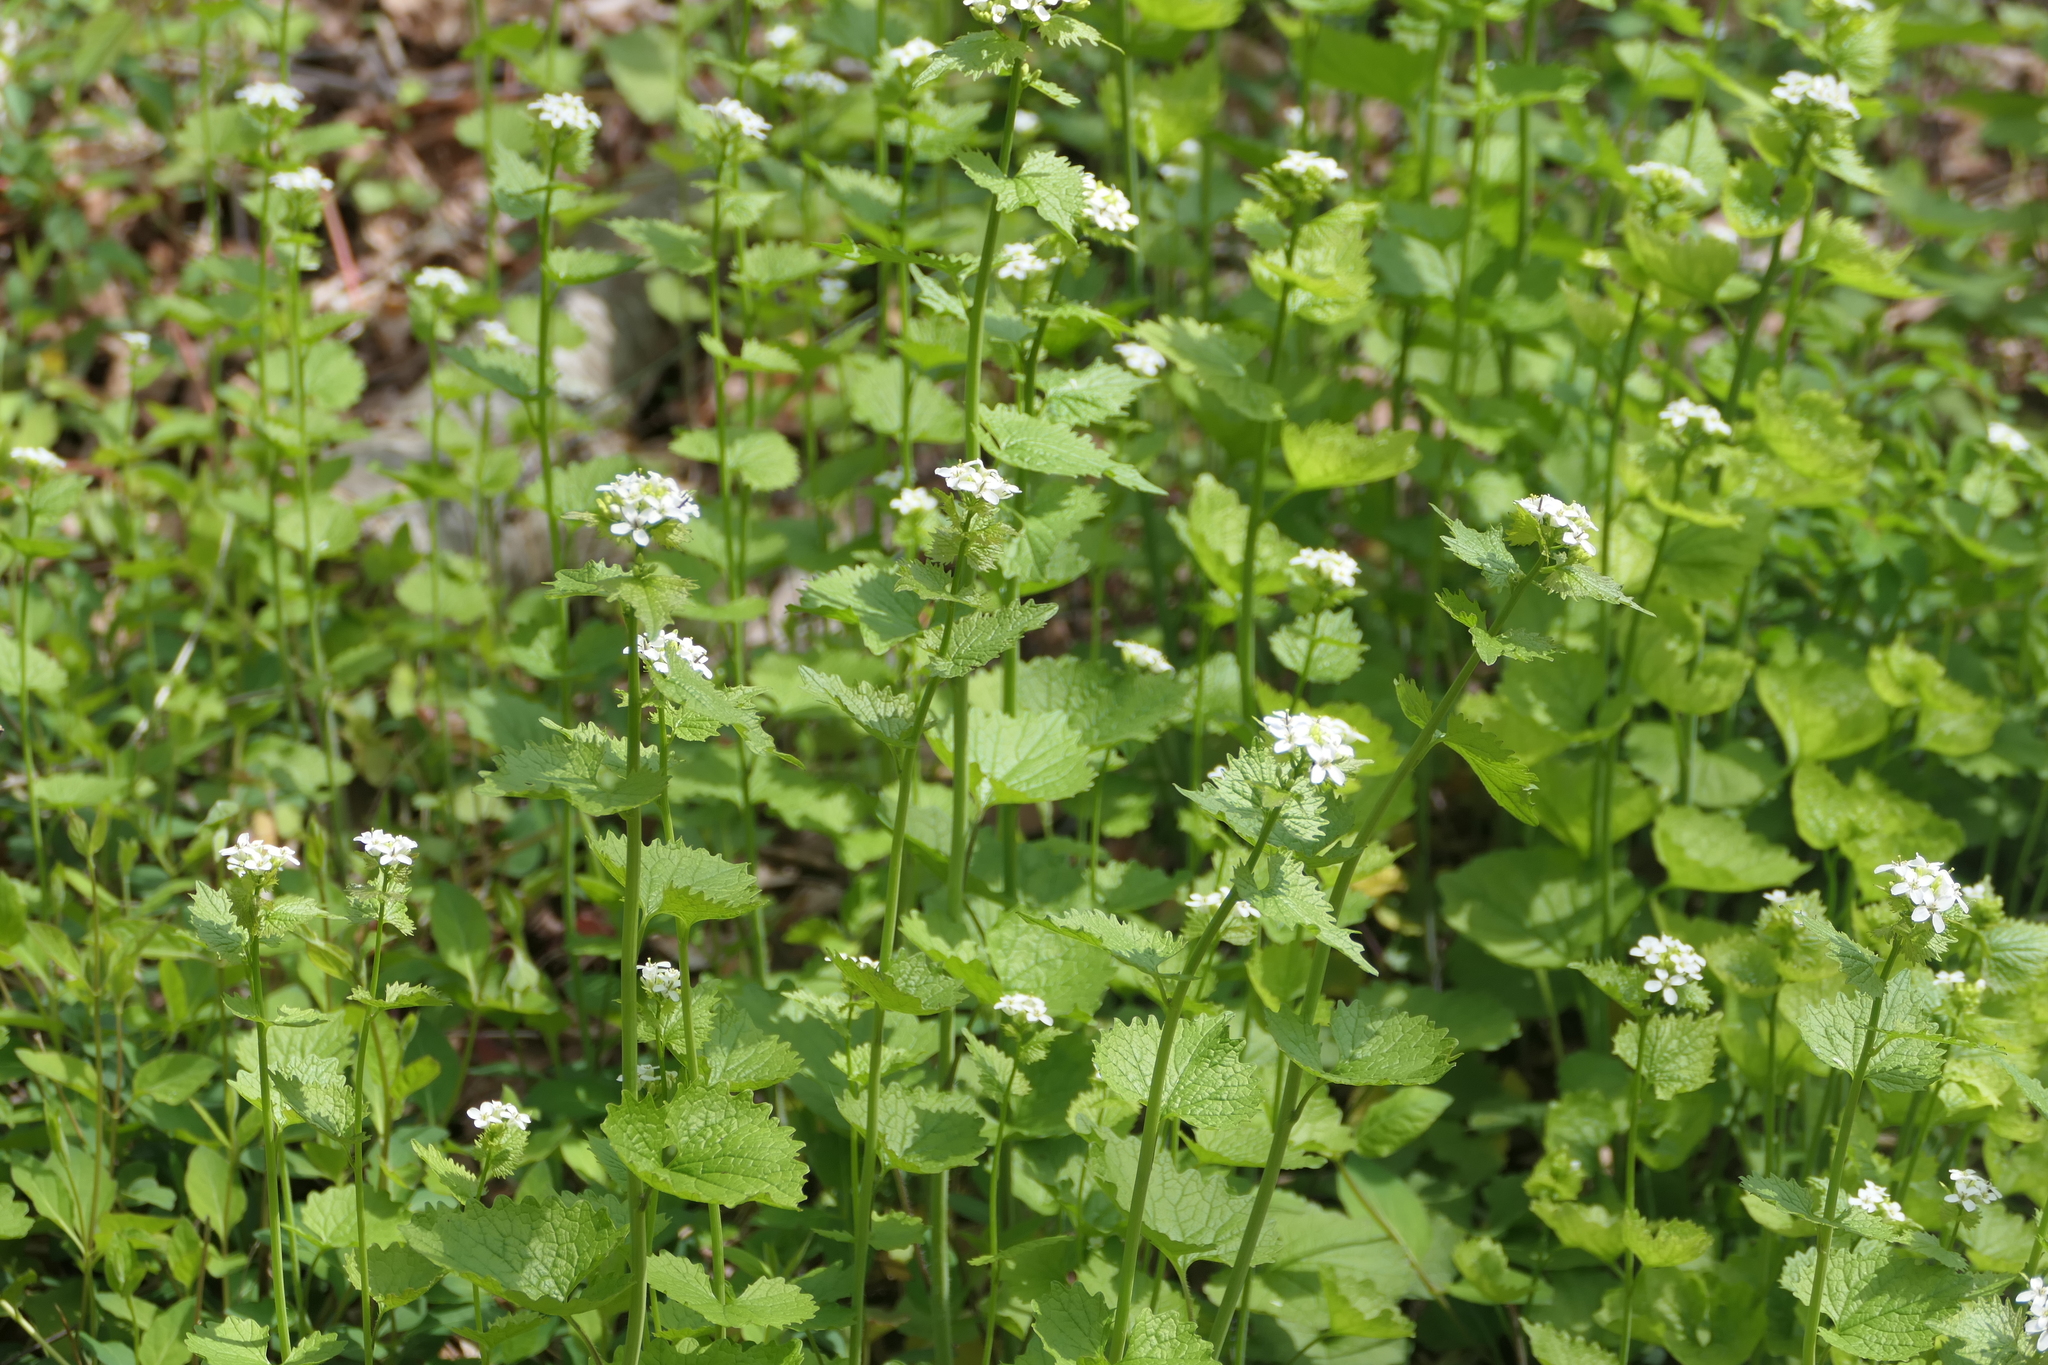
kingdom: Plantae
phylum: Tracheophyta
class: Magnoliopsida
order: Brassicales
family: Brassicaceae
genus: Alliaria
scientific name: Alliaria petiolata
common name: Garlic mustard
